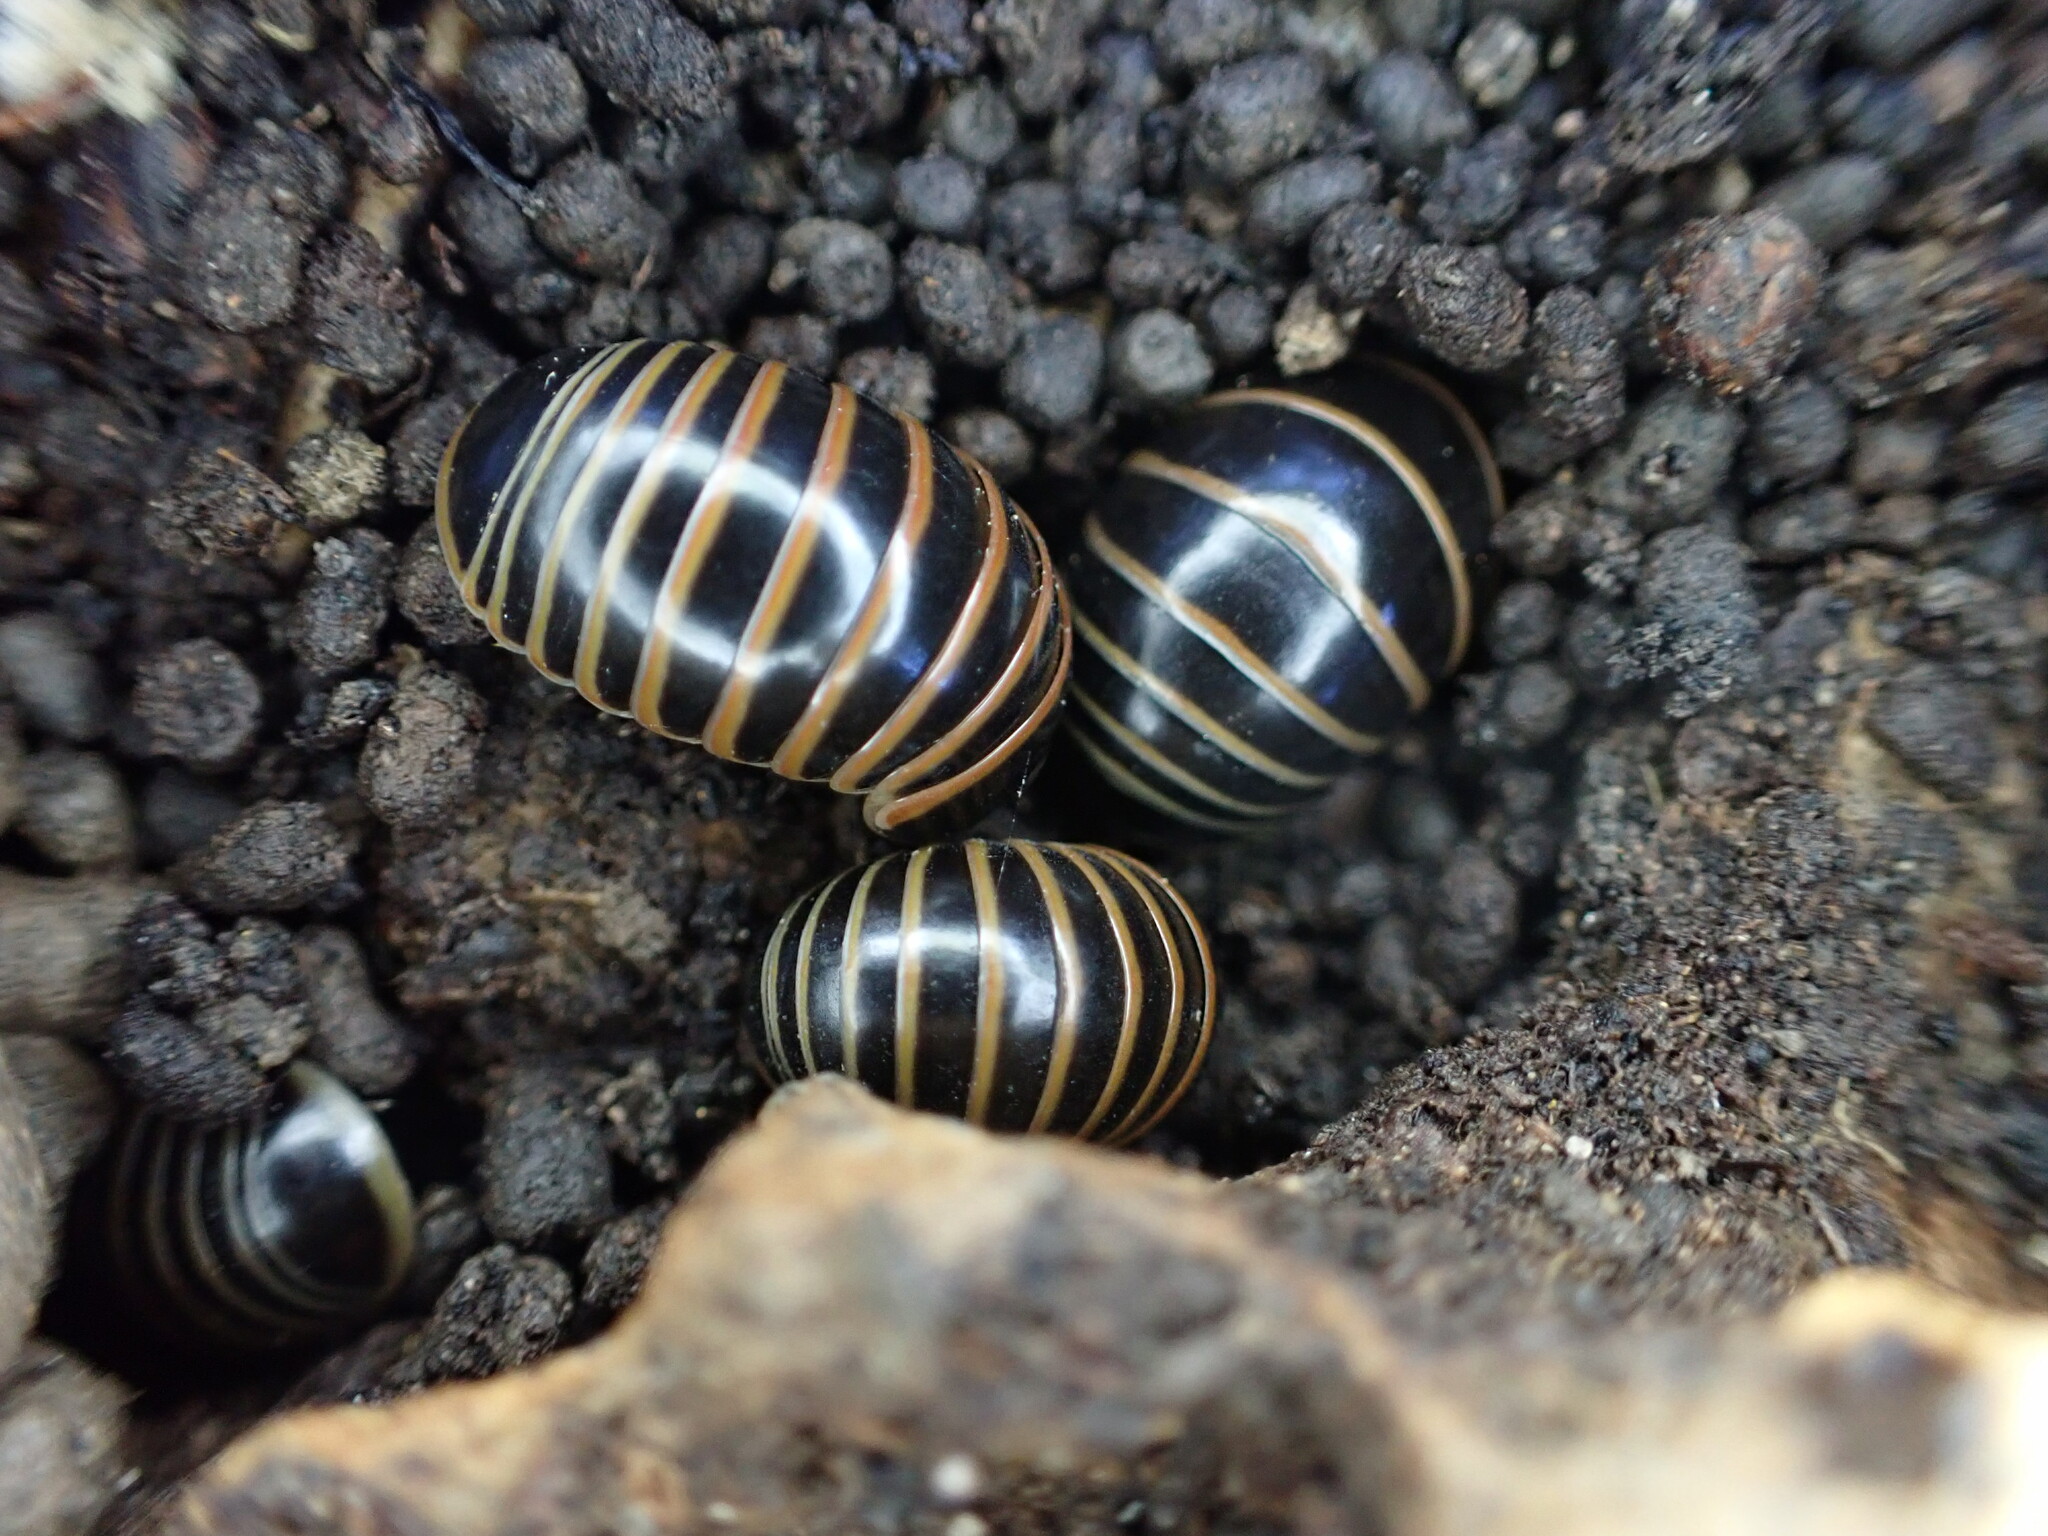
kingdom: Animalia
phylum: Arthropoda
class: Diplopoda
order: Glomerida
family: Glomeridae
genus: Glomeris
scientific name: Glomeris marginata
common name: Bordered pill millipede
